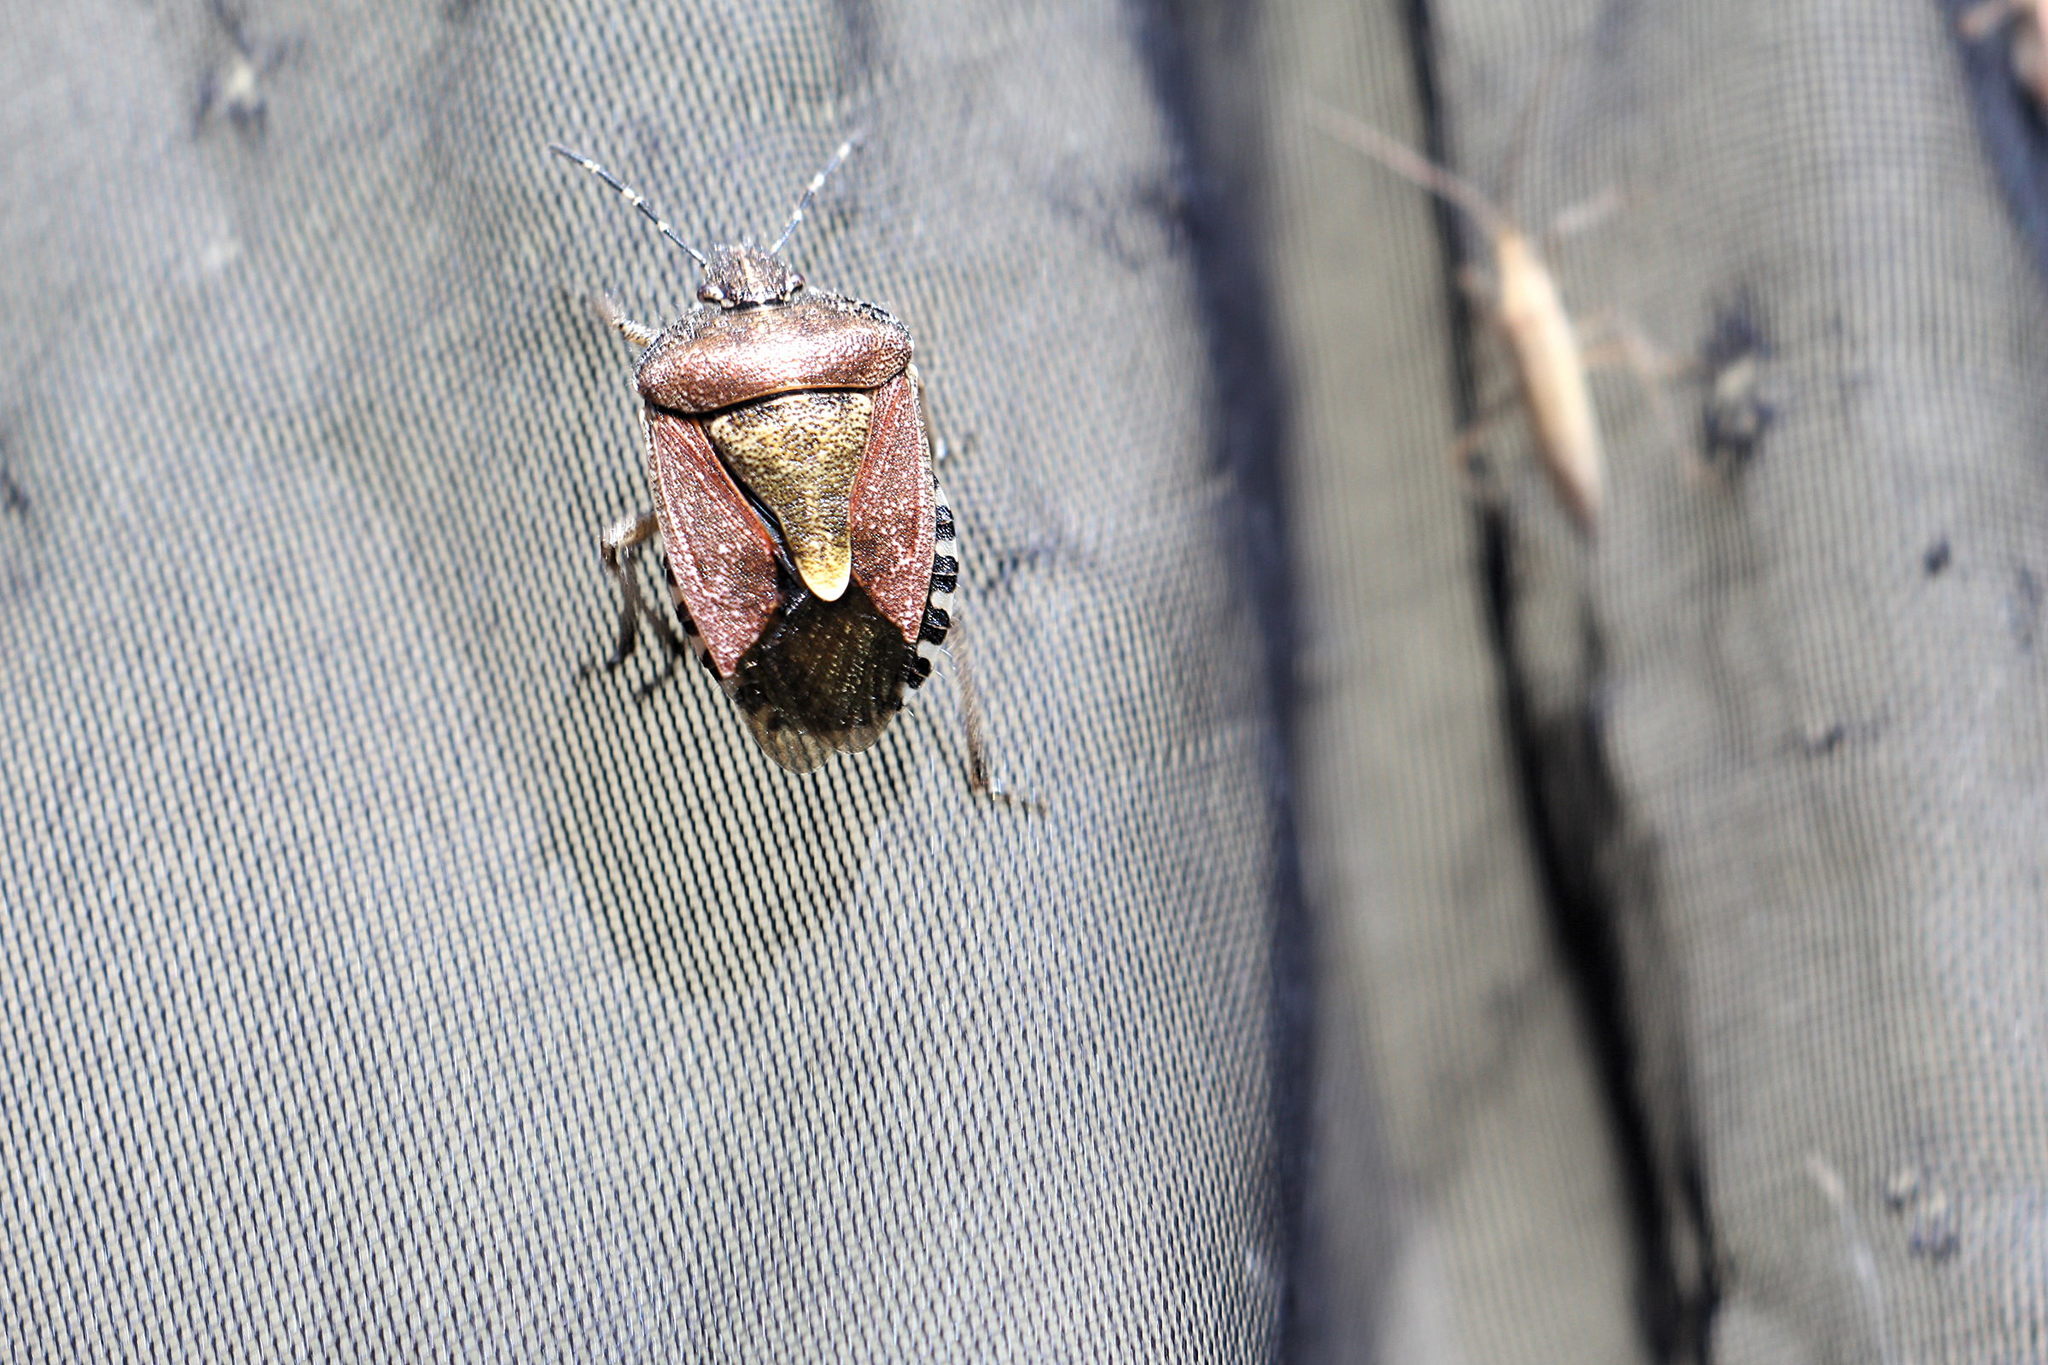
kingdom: Animalia
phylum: Arthropoda
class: Insecta
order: Hemiptera
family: Pentatomidae
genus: Dolycoris
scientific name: Dolycoris baccarum
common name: Sloe bug
